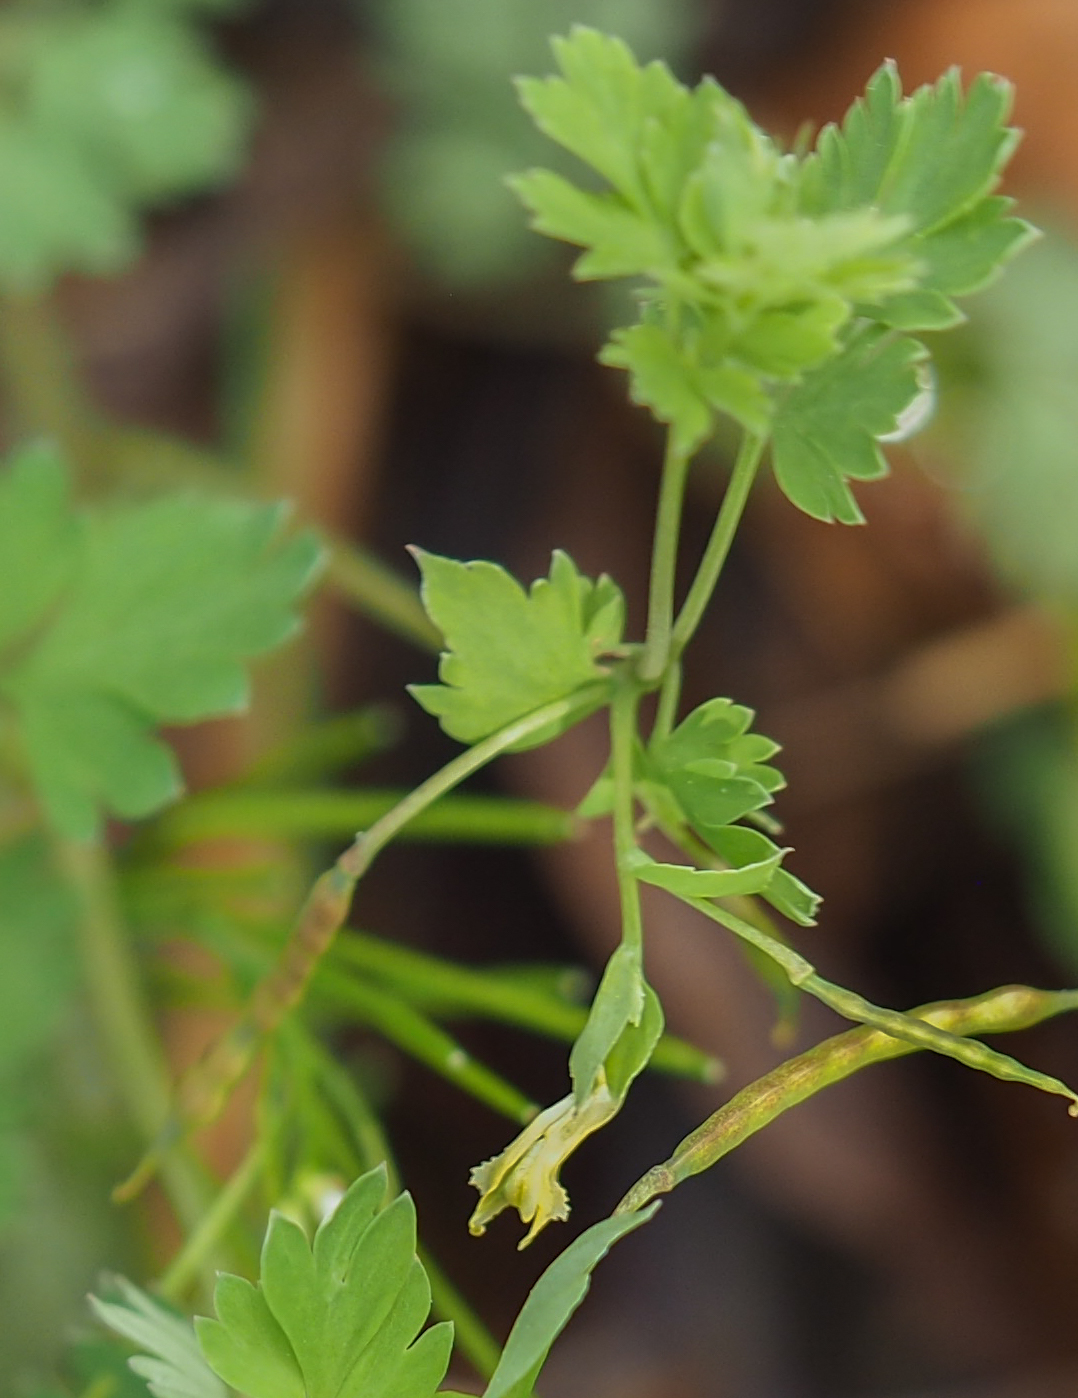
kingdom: Plantae
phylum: Tracheophyta
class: Magnoliopsida
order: Ranunculales
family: Papaveraceae
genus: Corydalis
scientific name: Corydalis flavula
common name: Yellow corydalis
